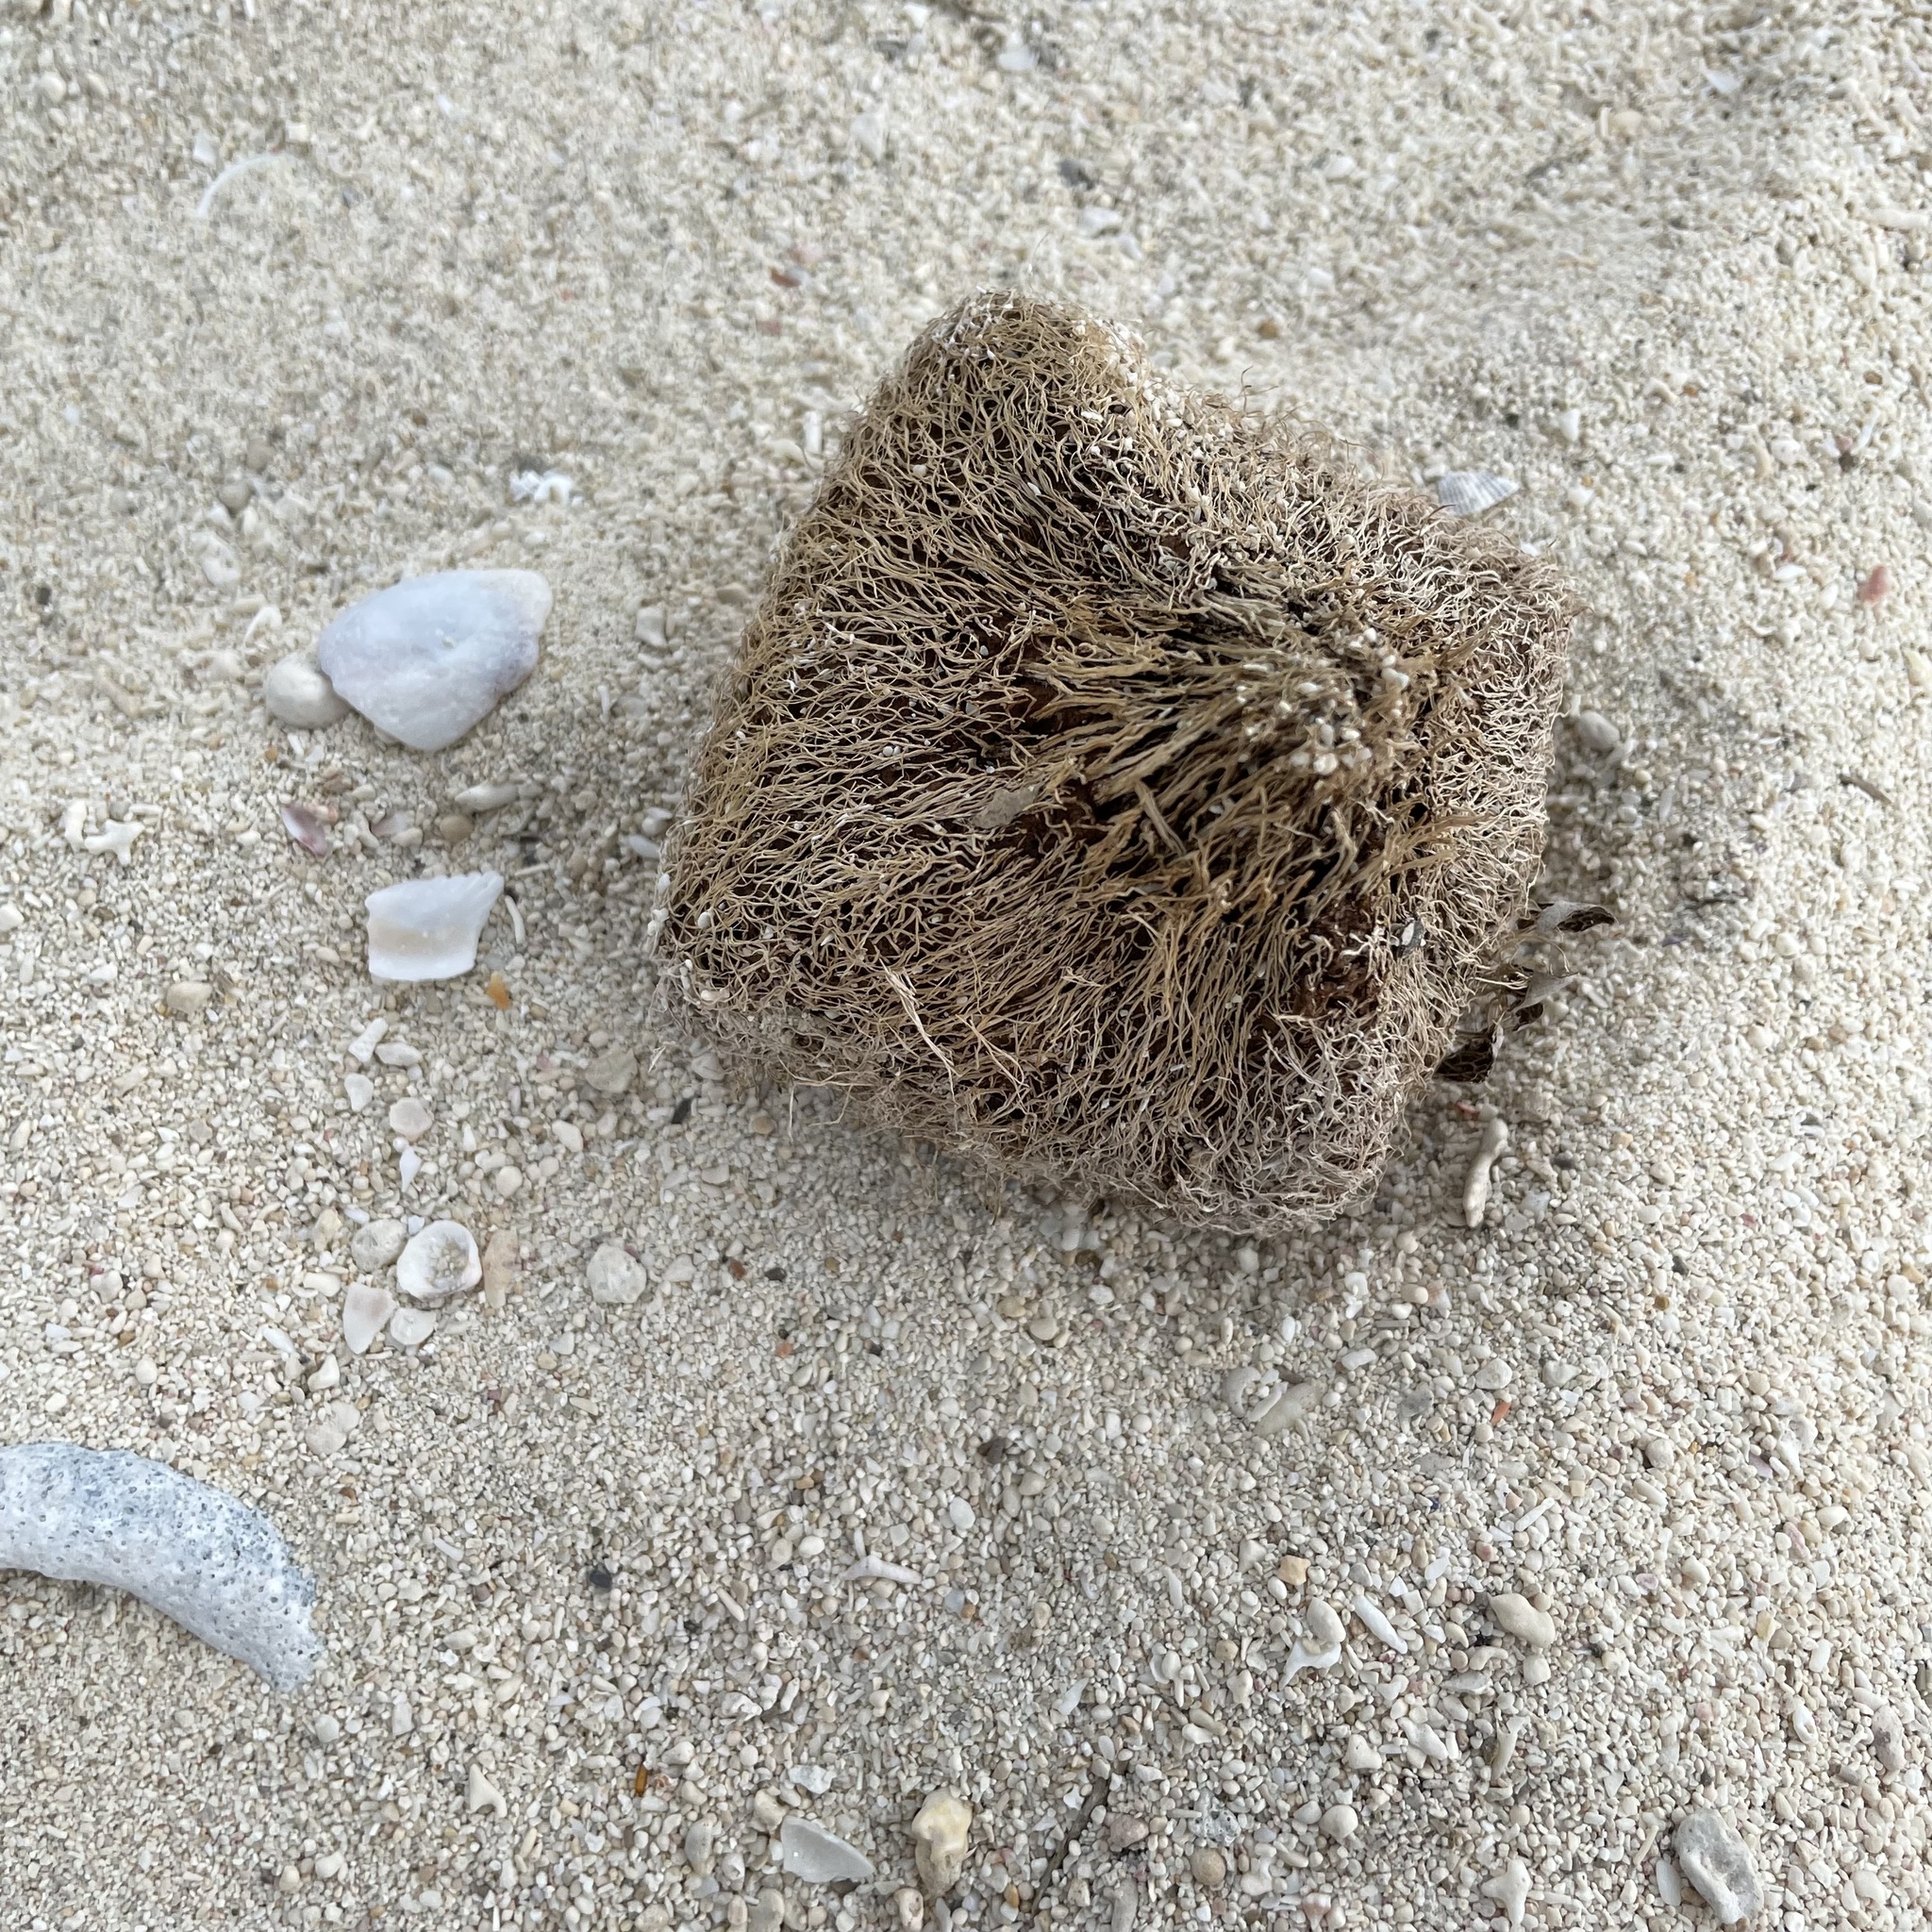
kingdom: Plantae
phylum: Tracheophyta
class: Magnoliopsida
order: Ericales
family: Lecythidaceae
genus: Barringtonia
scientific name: Barringtonia asiatica
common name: Mango-pine
